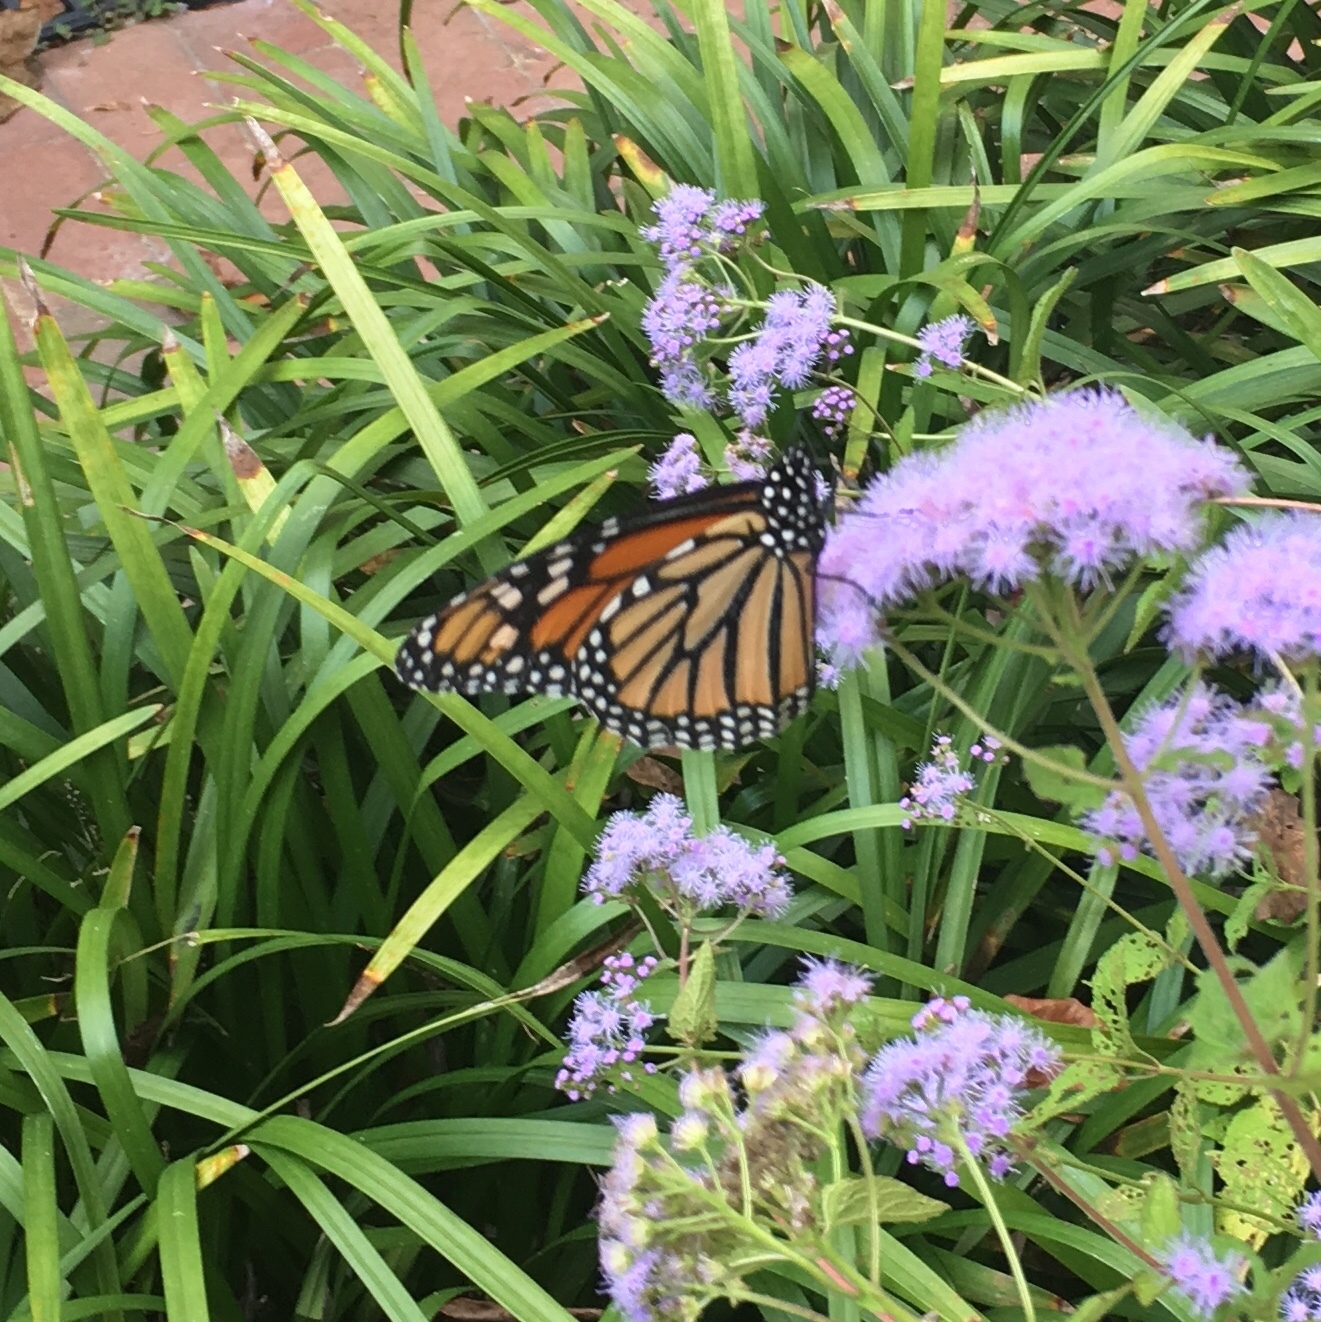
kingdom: Animalia
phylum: Arthropoda
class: Insecta
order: Lepidoptera
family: Nymphalidae
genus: Danaus
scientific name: Danaus plexippus
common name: Monarch
